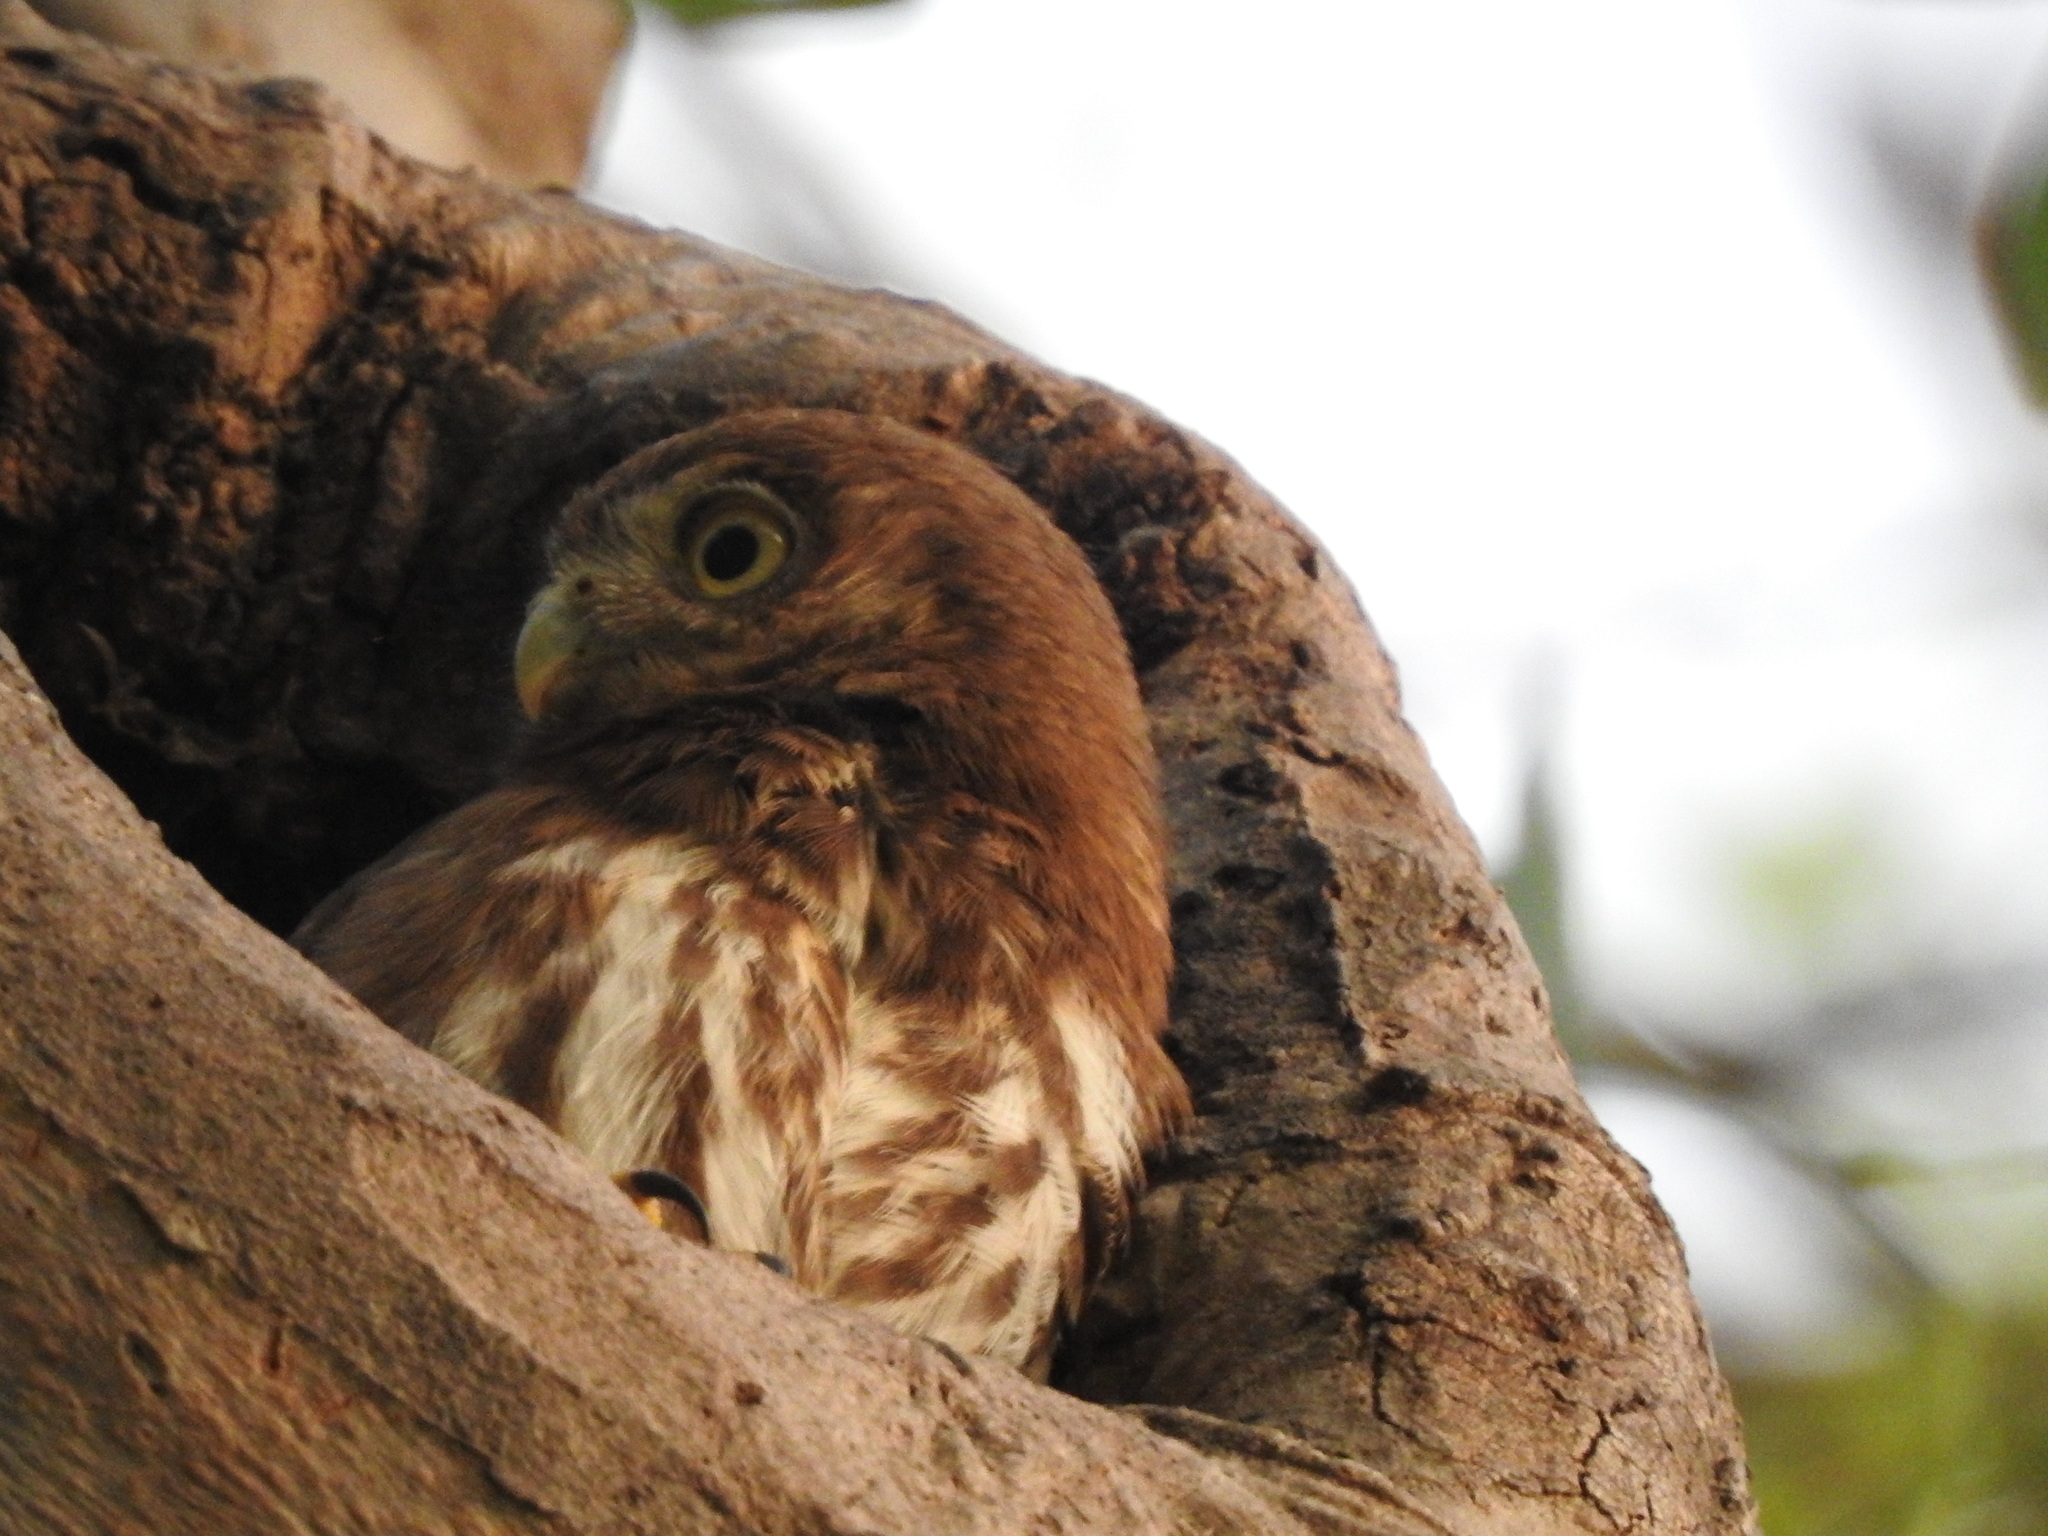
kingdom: Animalia
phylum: Chordata
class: Aves
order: Strigiformes
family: Strigidae
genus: Glaucidium
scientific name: Glaucidium brasilianum
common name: Ferruginous pygmy-owl
